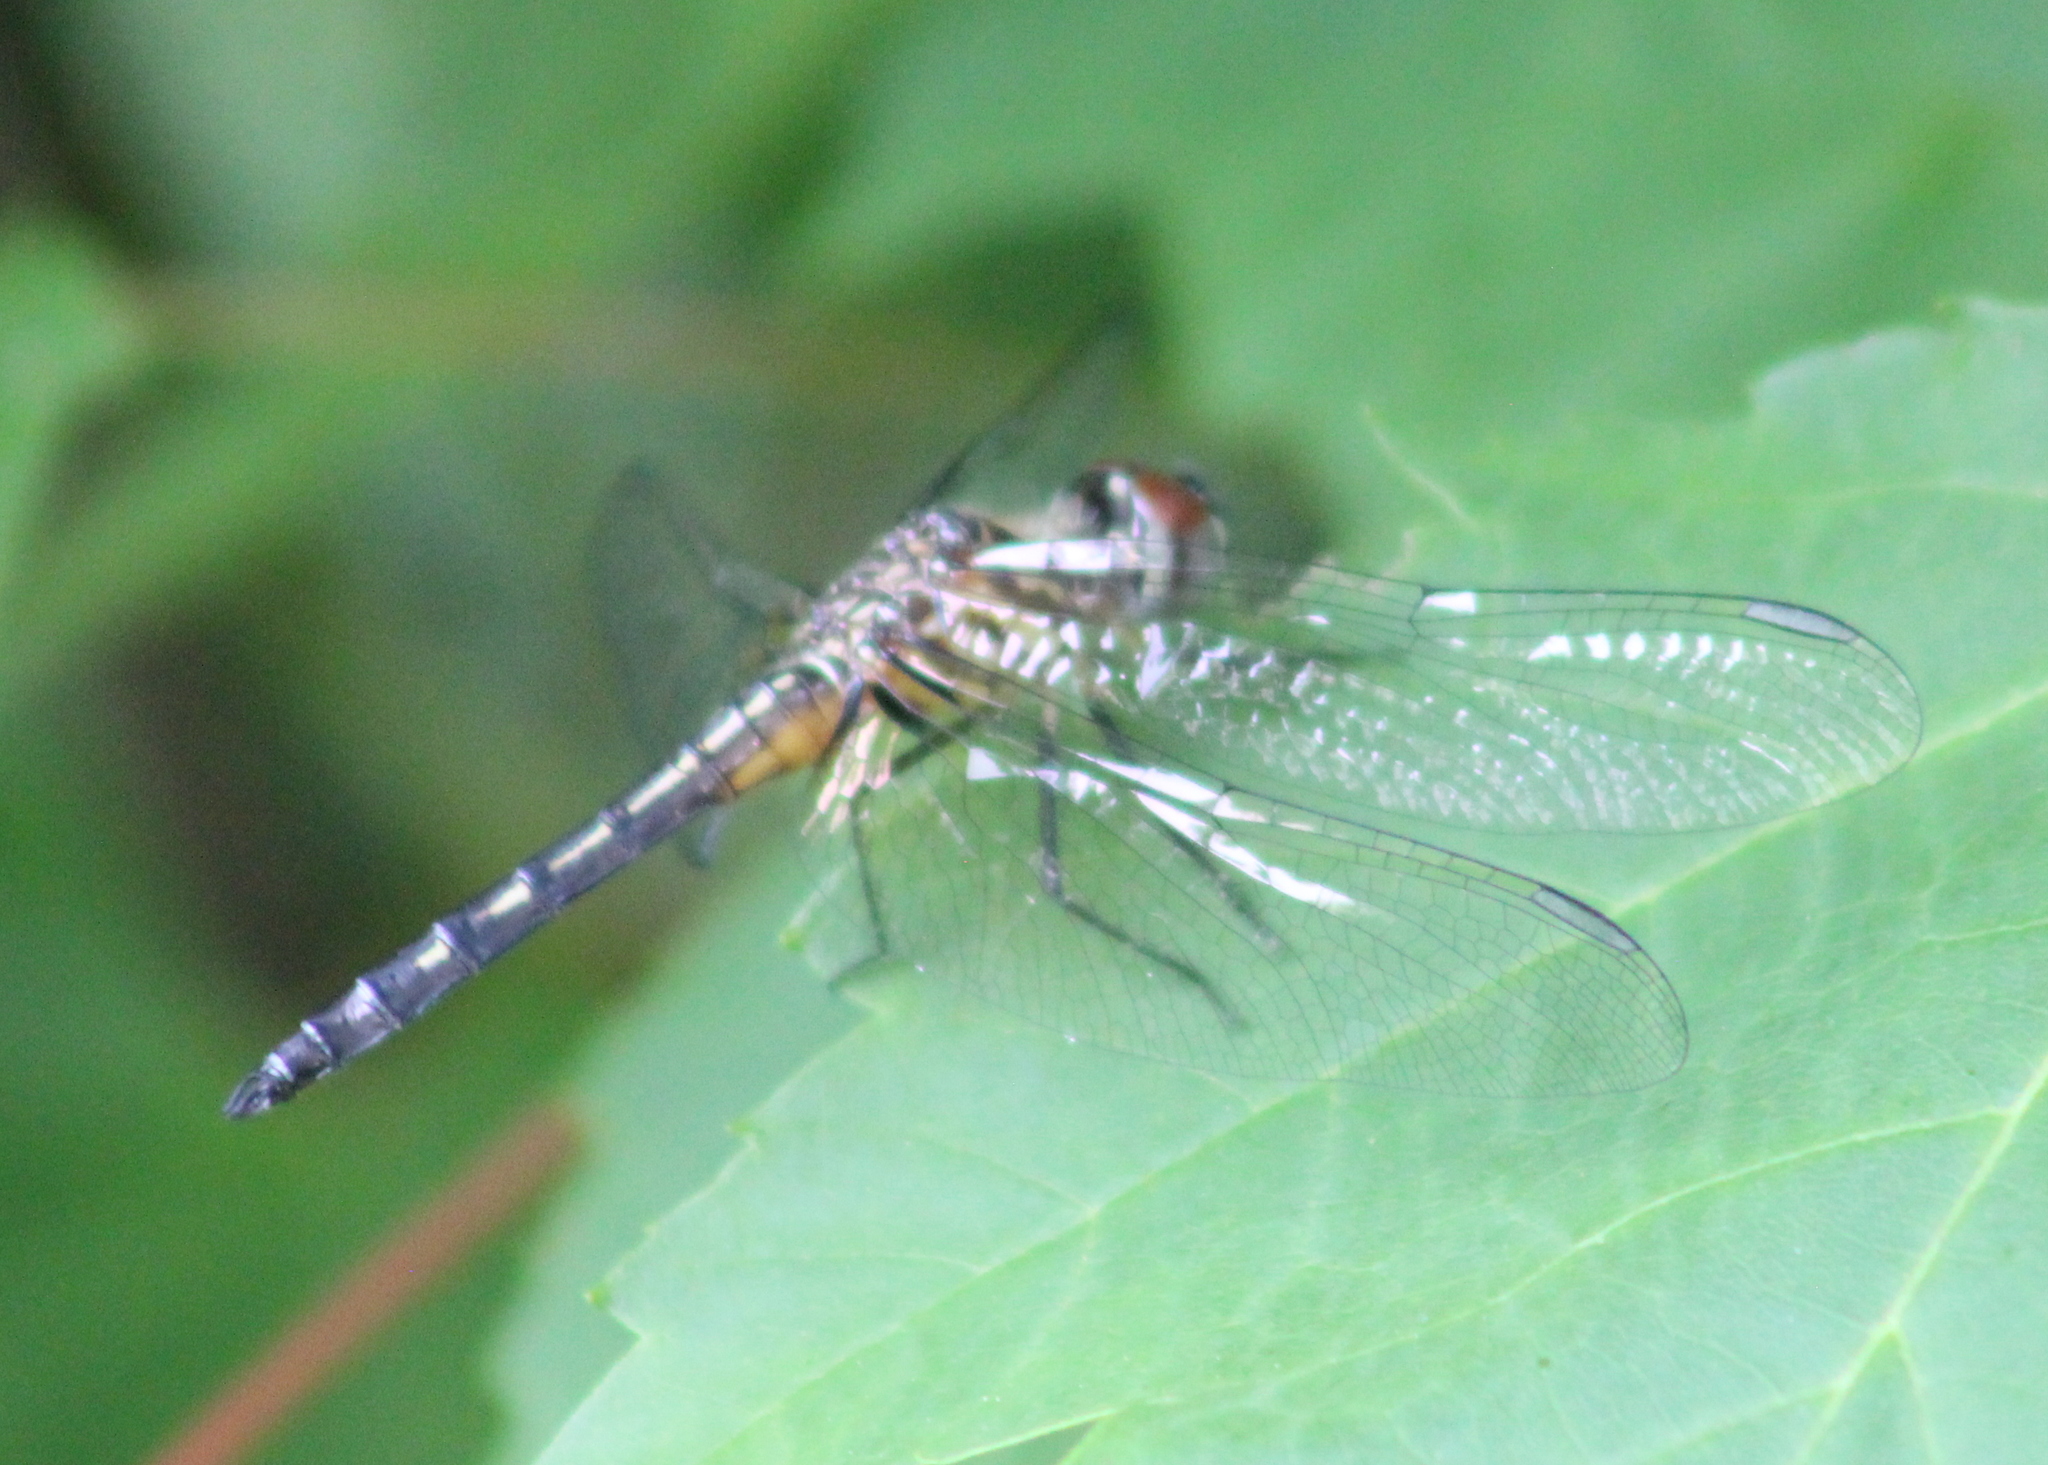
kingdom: Animalia
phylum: Arthropoda
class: Insecta
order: Odonata
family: Libellulidae
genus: Pachydiplax
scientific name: Pachydiplax longipennis
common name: Blue dasher
